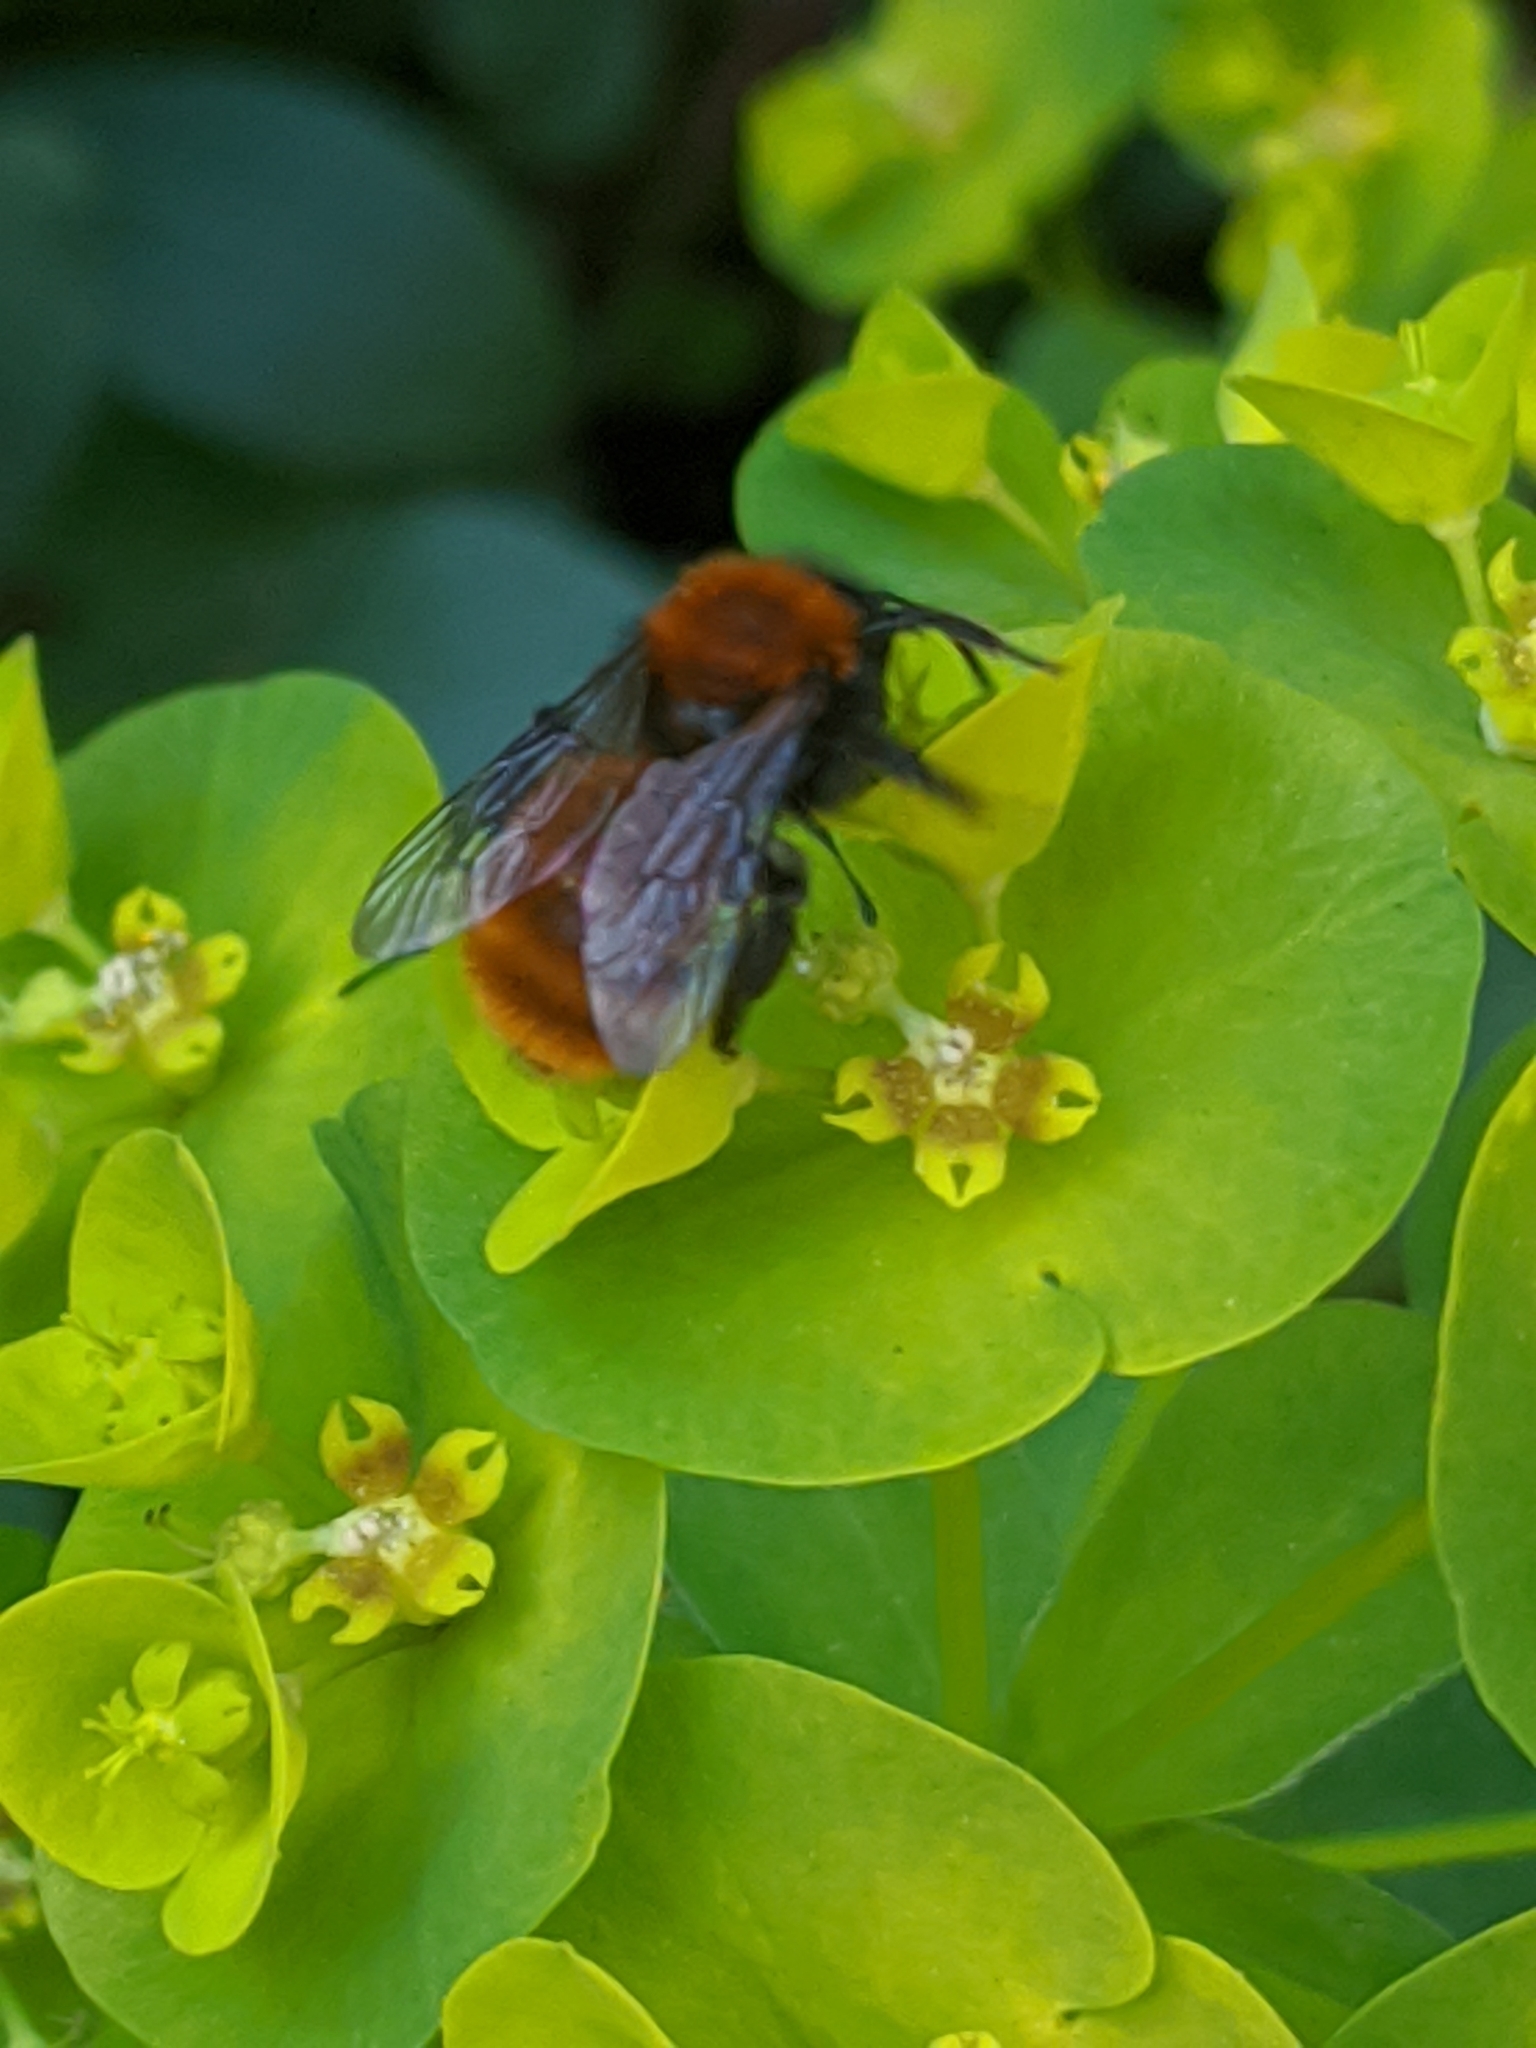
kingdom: Animalia
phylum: Arthropoda
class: Insecta
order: Hymenoptera
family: Andrenidae
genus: Andrena
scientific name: Andrena fulva
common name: Tawny mining bee
